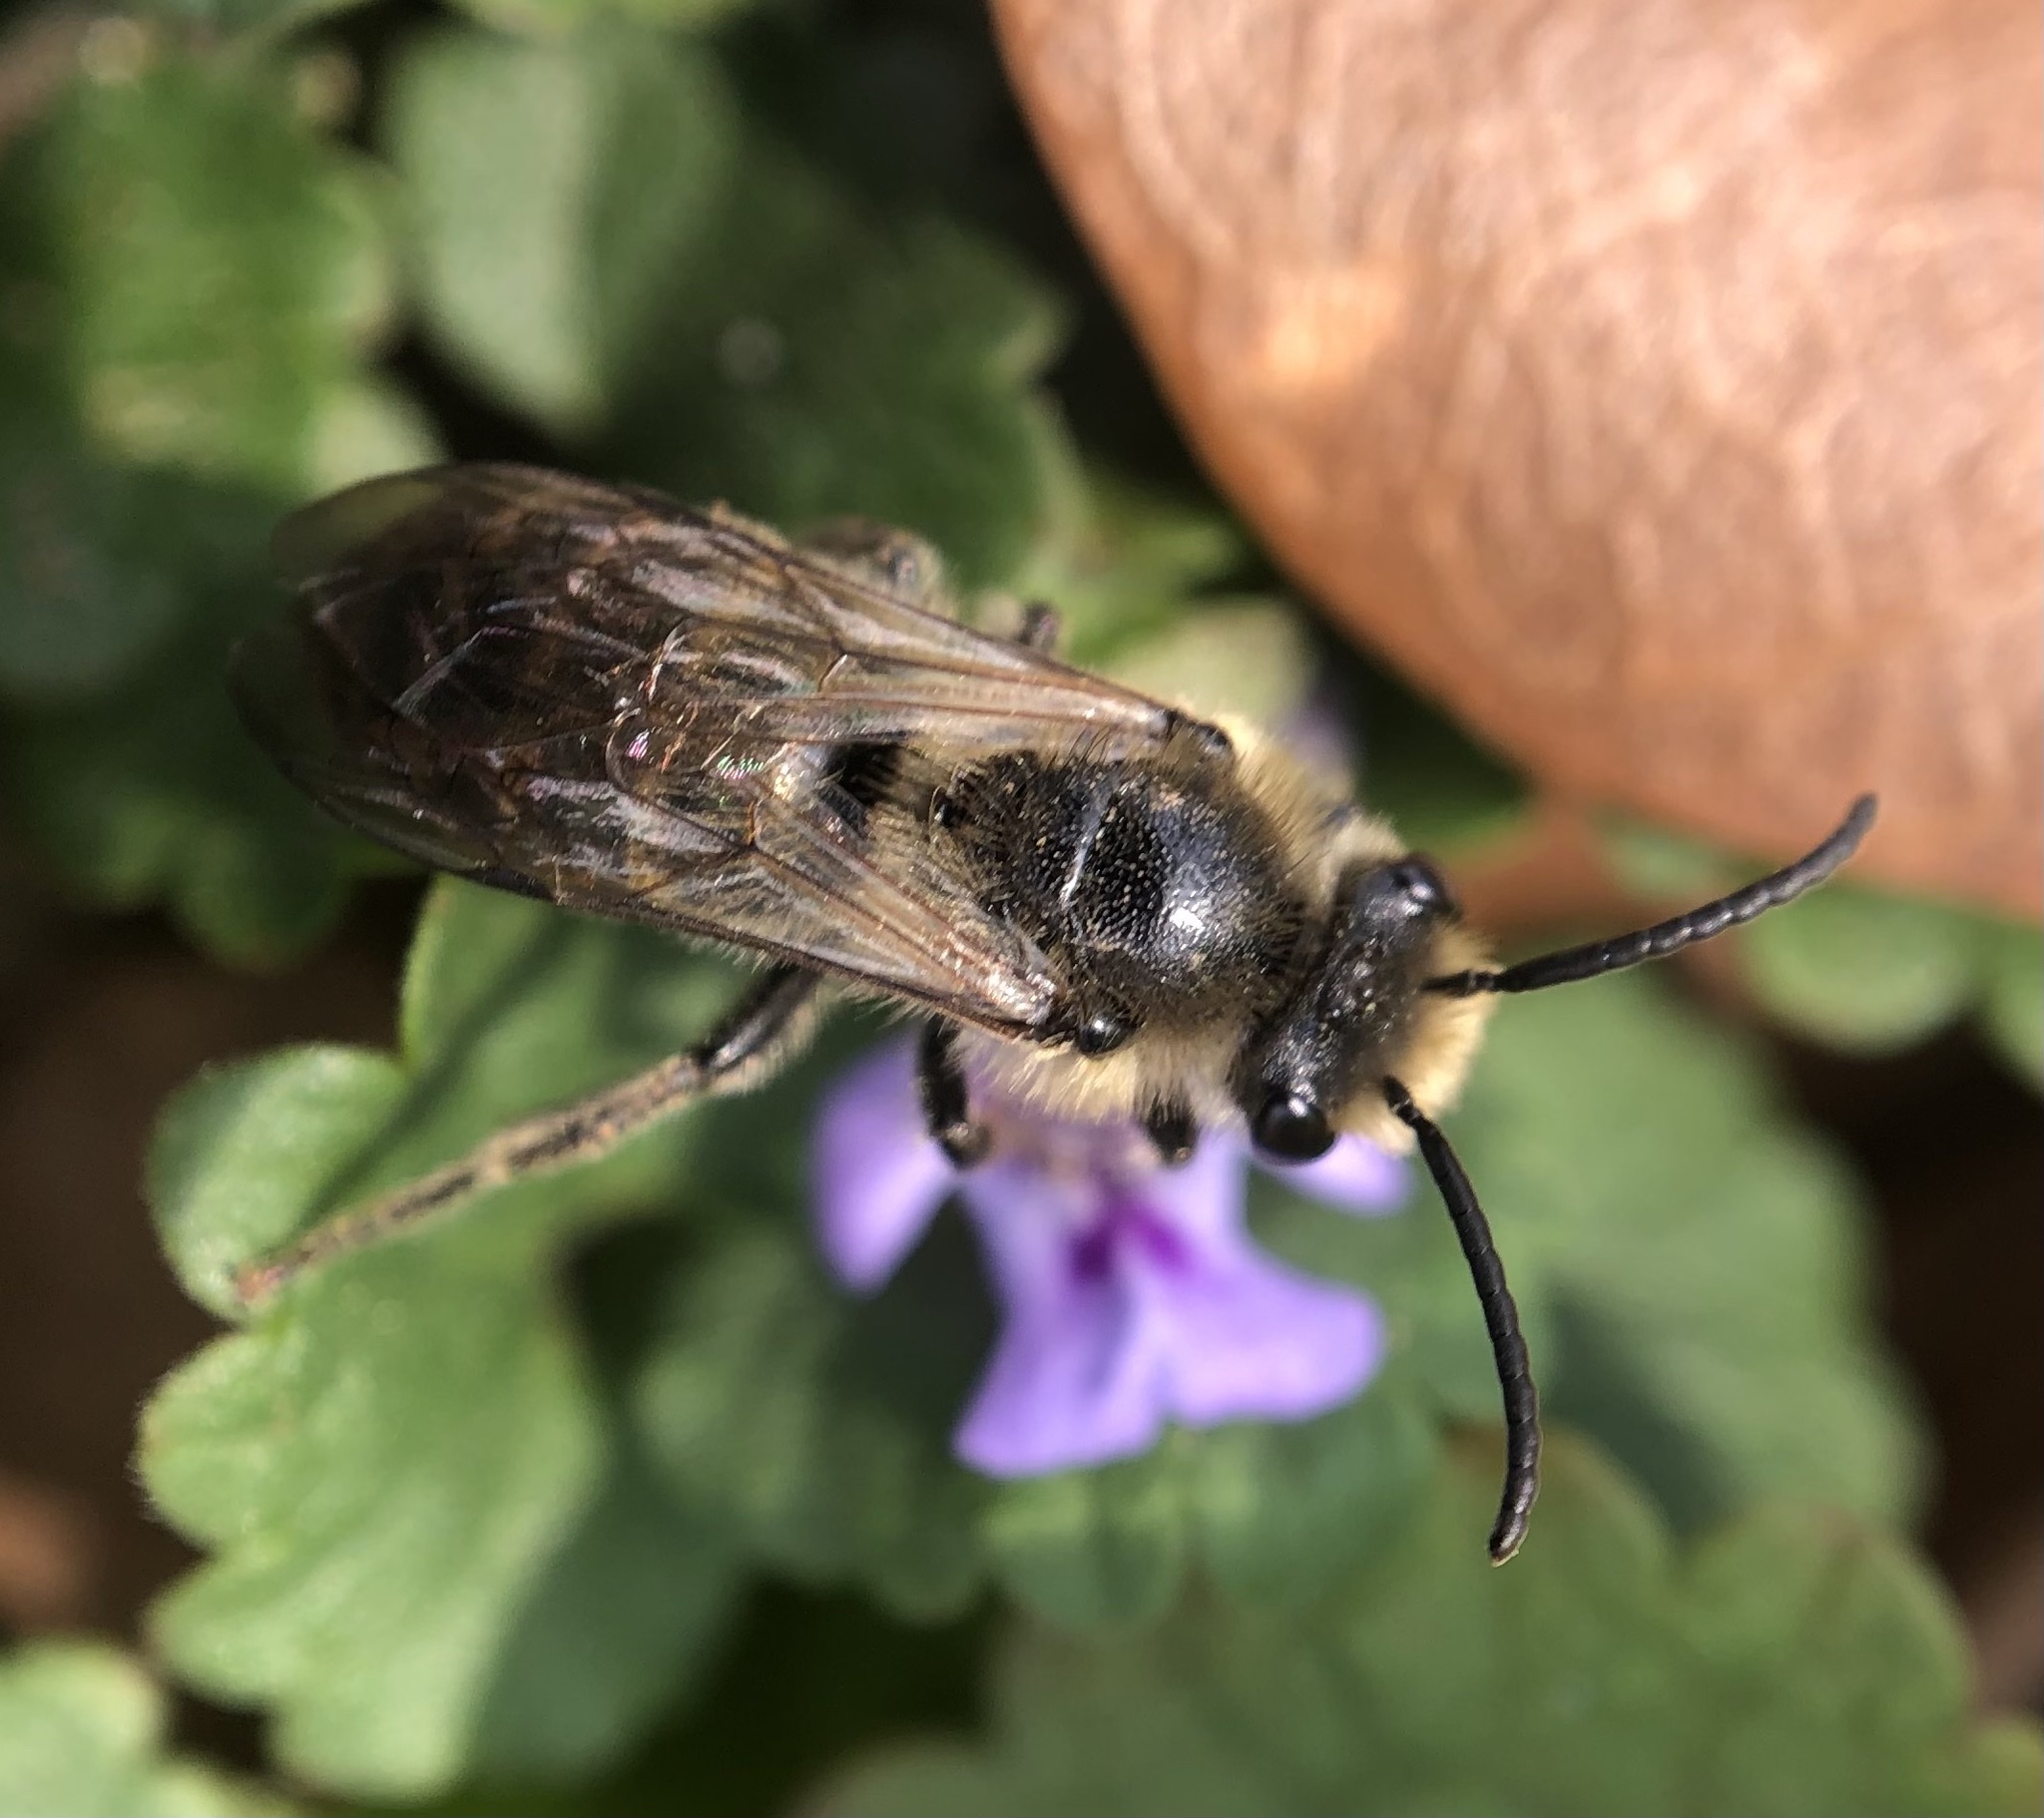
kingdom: Animalia
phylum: Arthropoda
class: Insecta
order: Hymenoptera
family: Colletidae
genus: Colletes
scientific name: Colletes inaequalis
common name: Unequal cellophane bee
